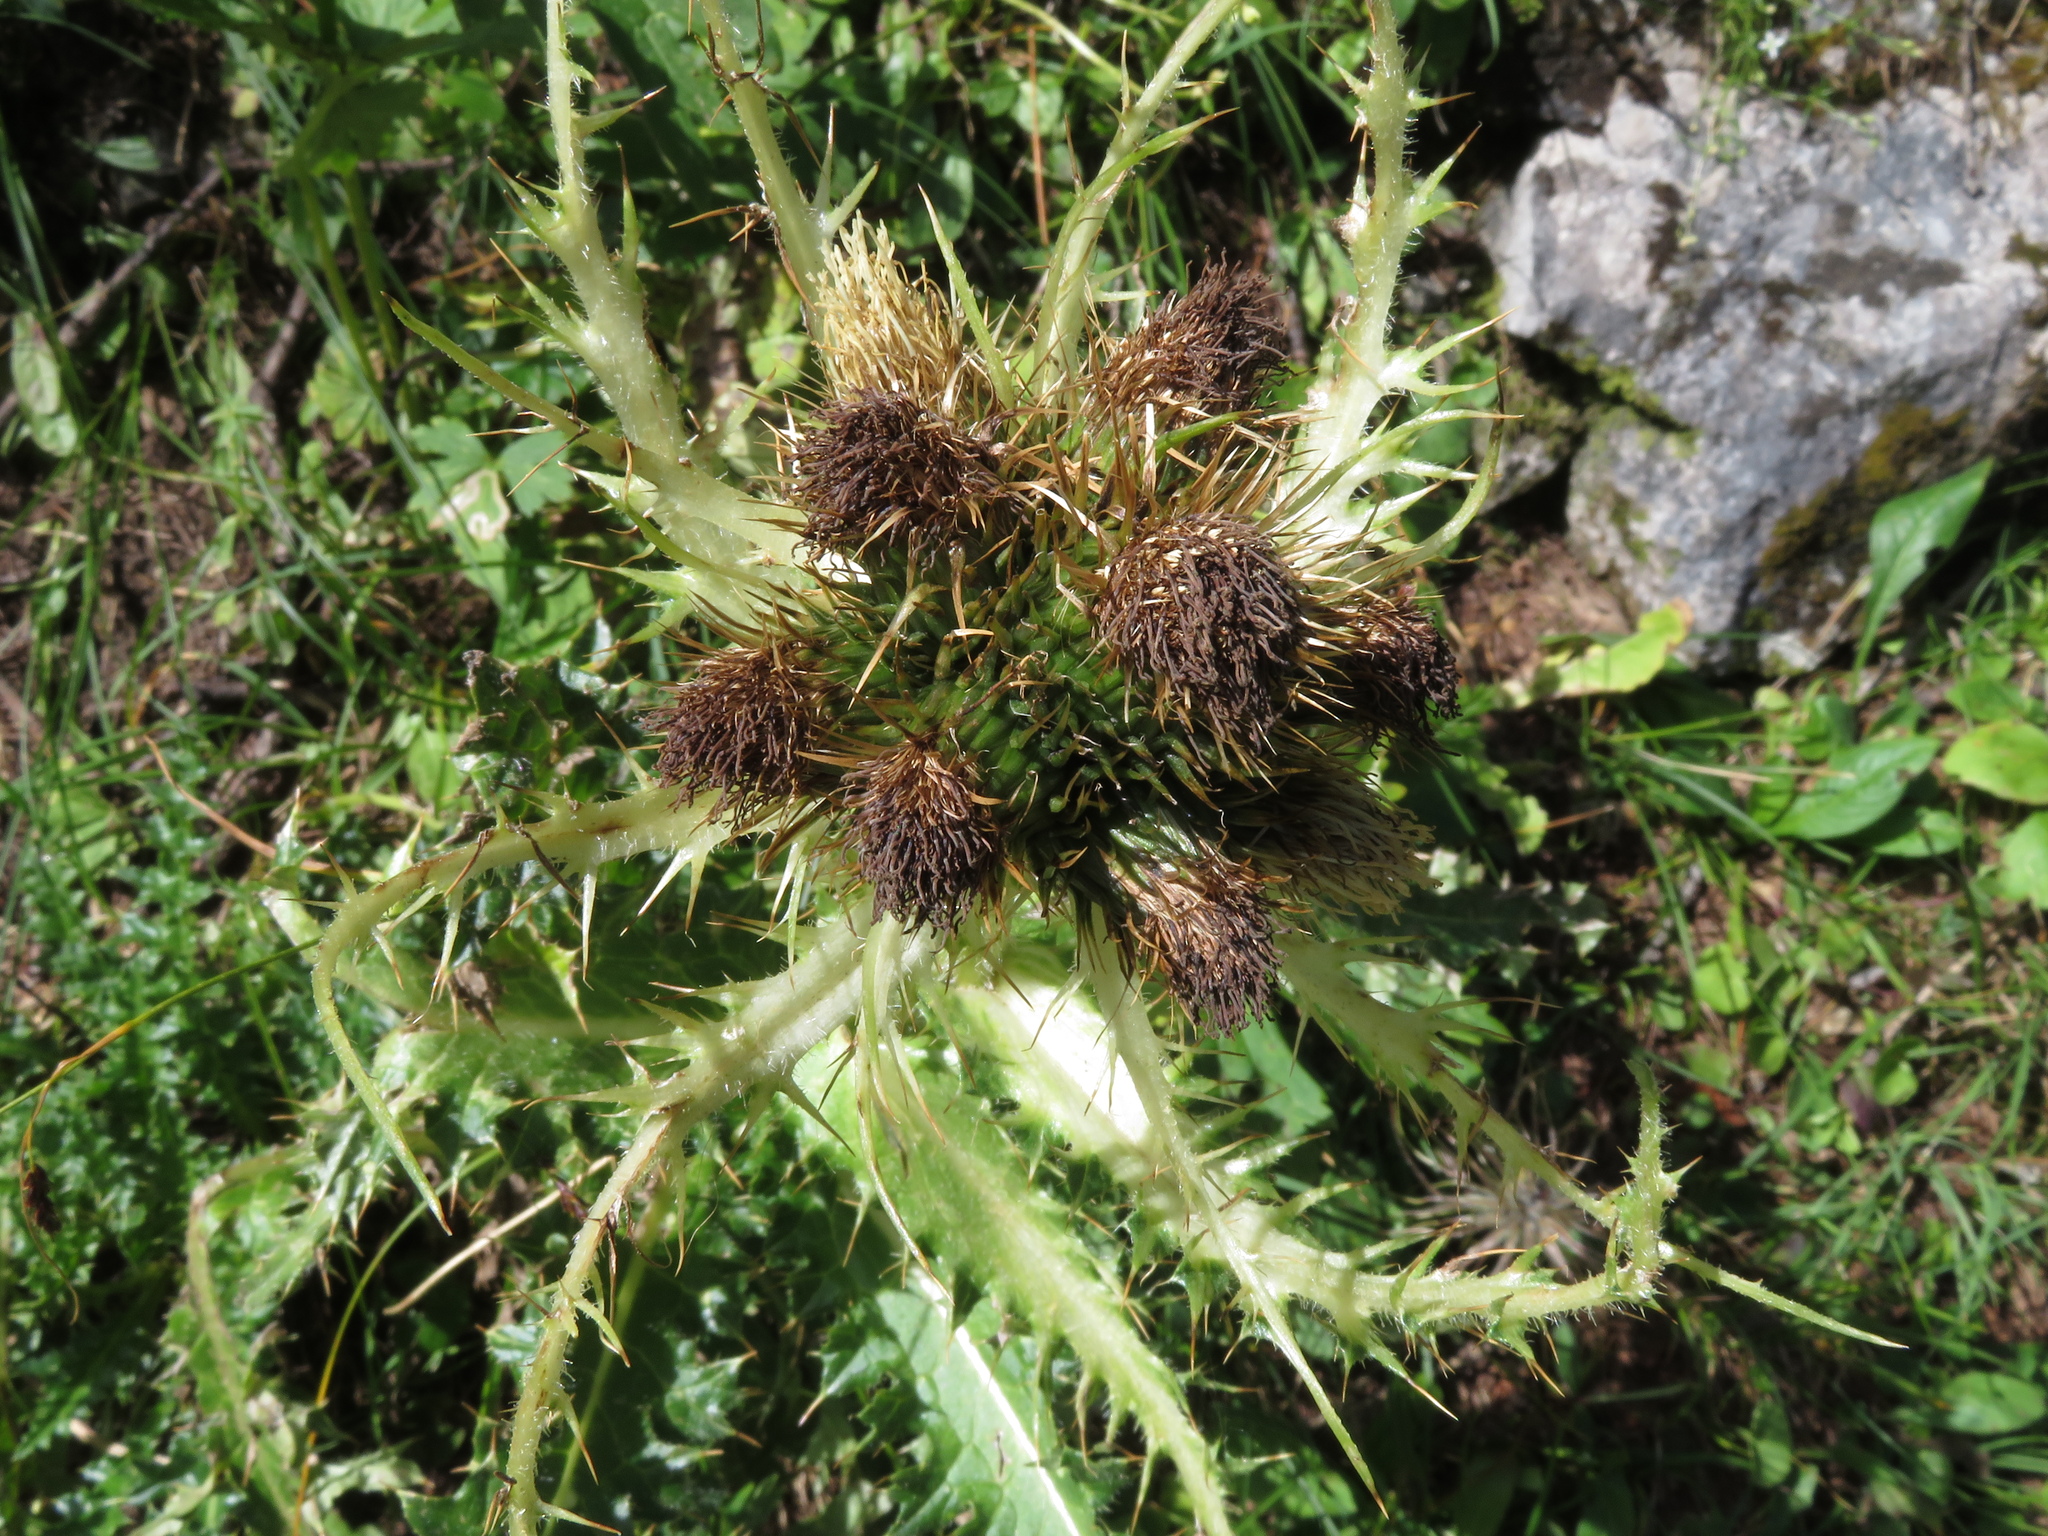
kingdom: Plantae
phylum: Tracheophyta
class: Magnoliopsida
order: Asterales
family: Asteraceae
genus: Cirsium
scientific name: Cirsium spinosissimum
